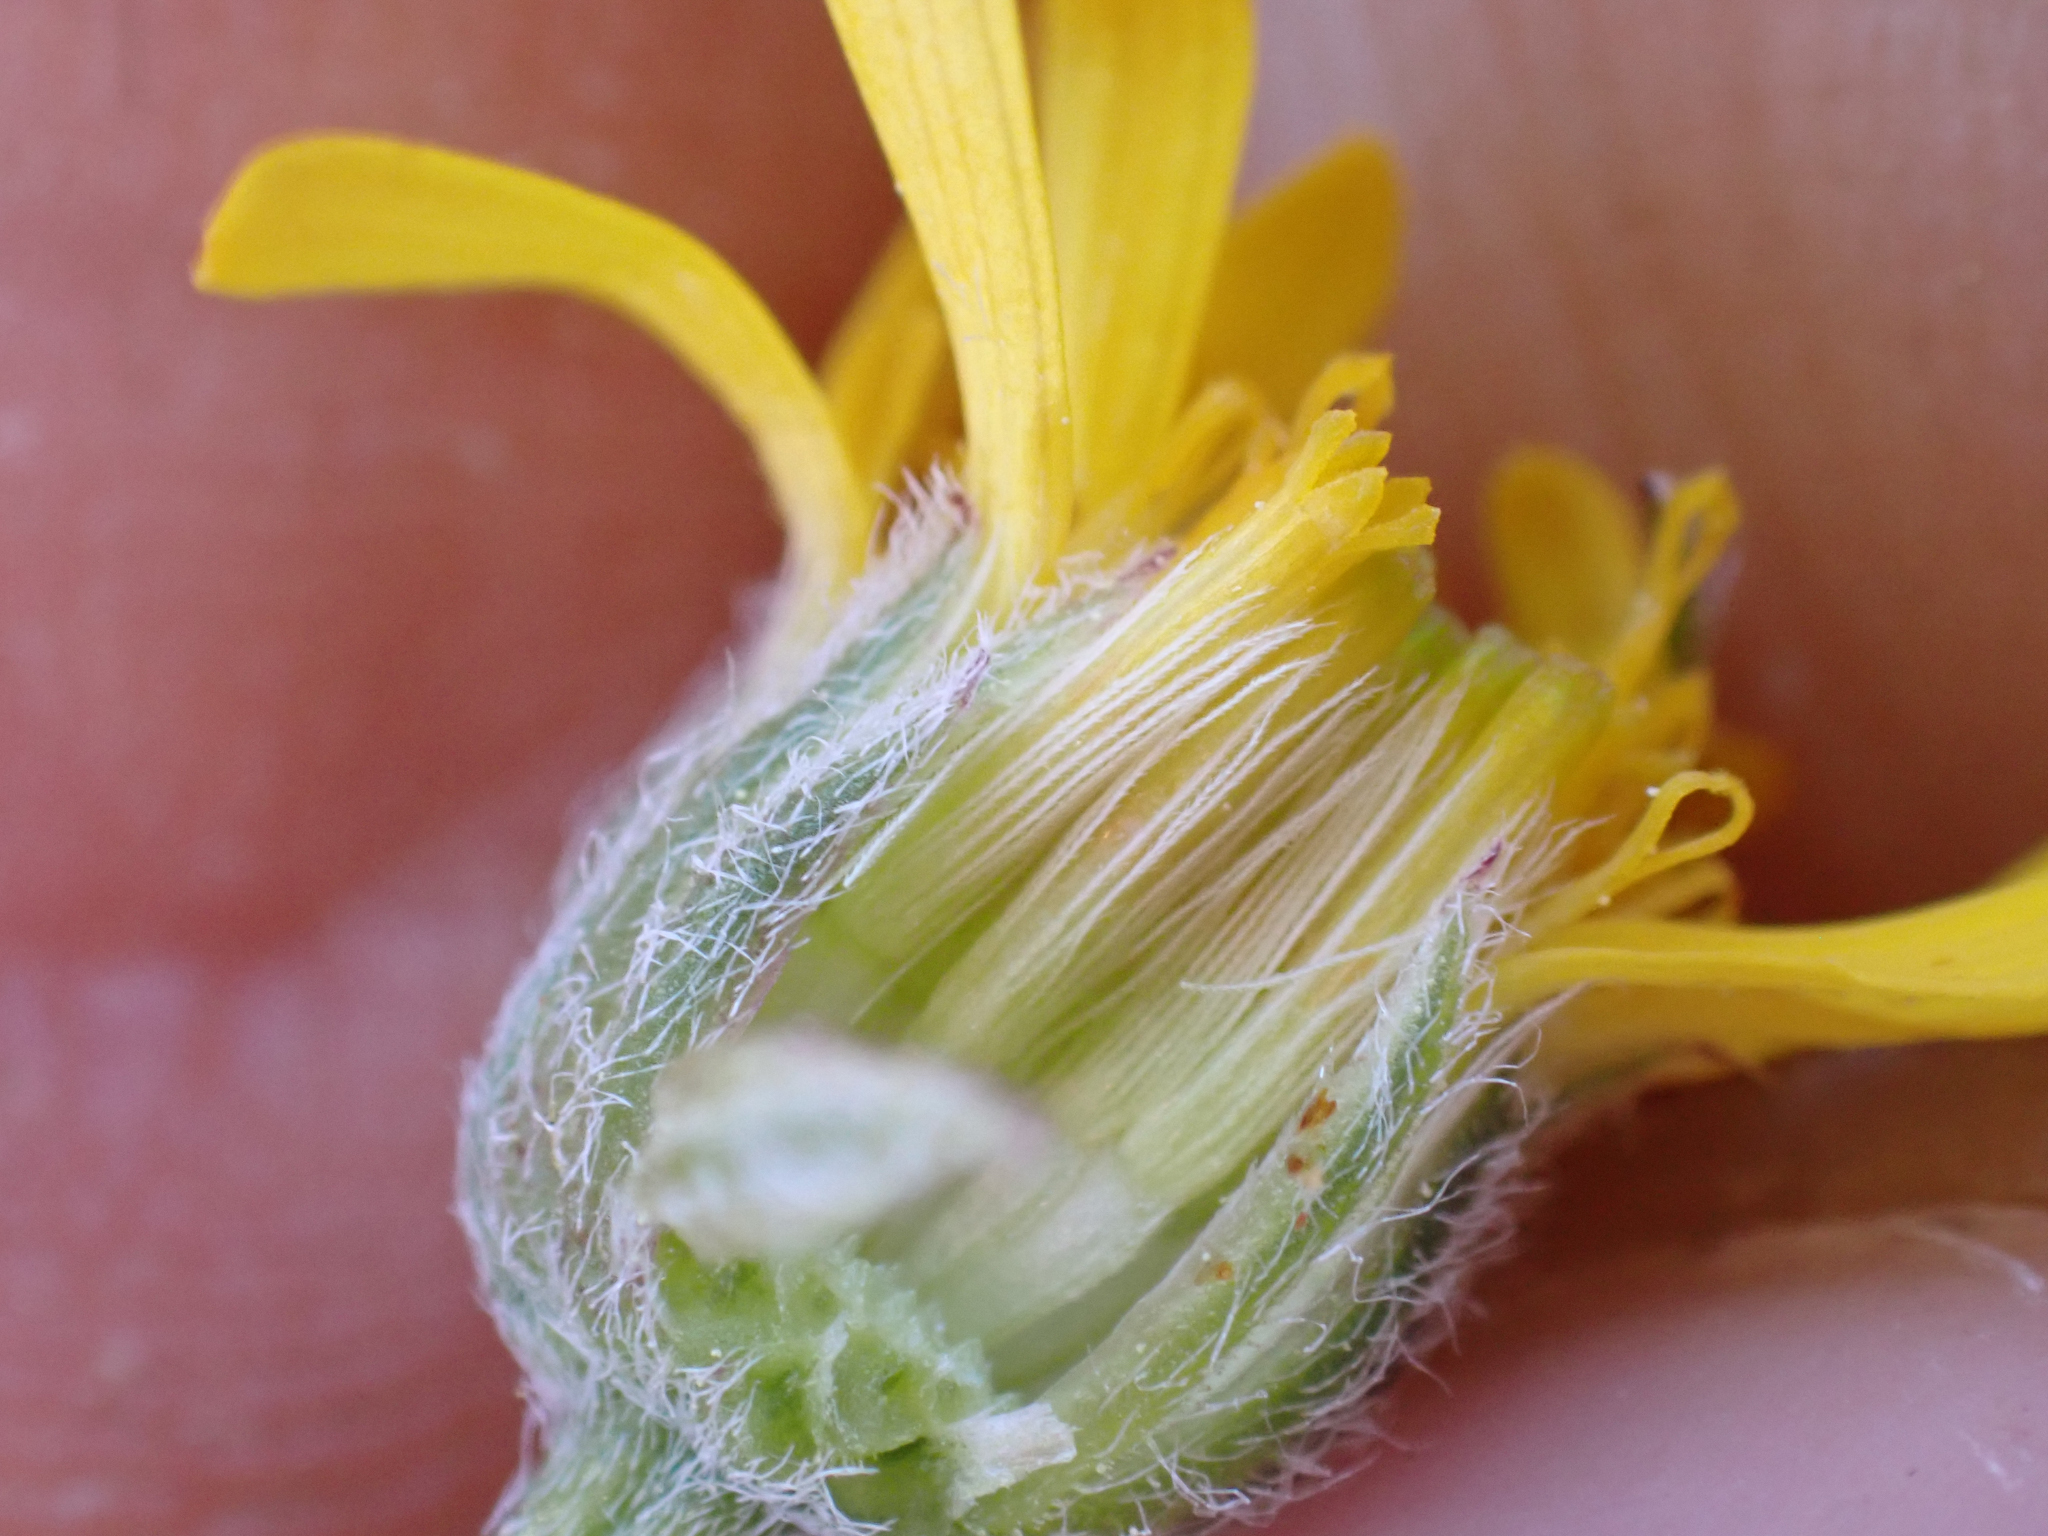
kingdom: Plantae
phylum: Tracheophyta
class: Magnoliopsida
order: Asterales
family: Asteraceae
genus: Erigeron
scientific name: Erigeron linearis
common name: Desert yellow fleabane
